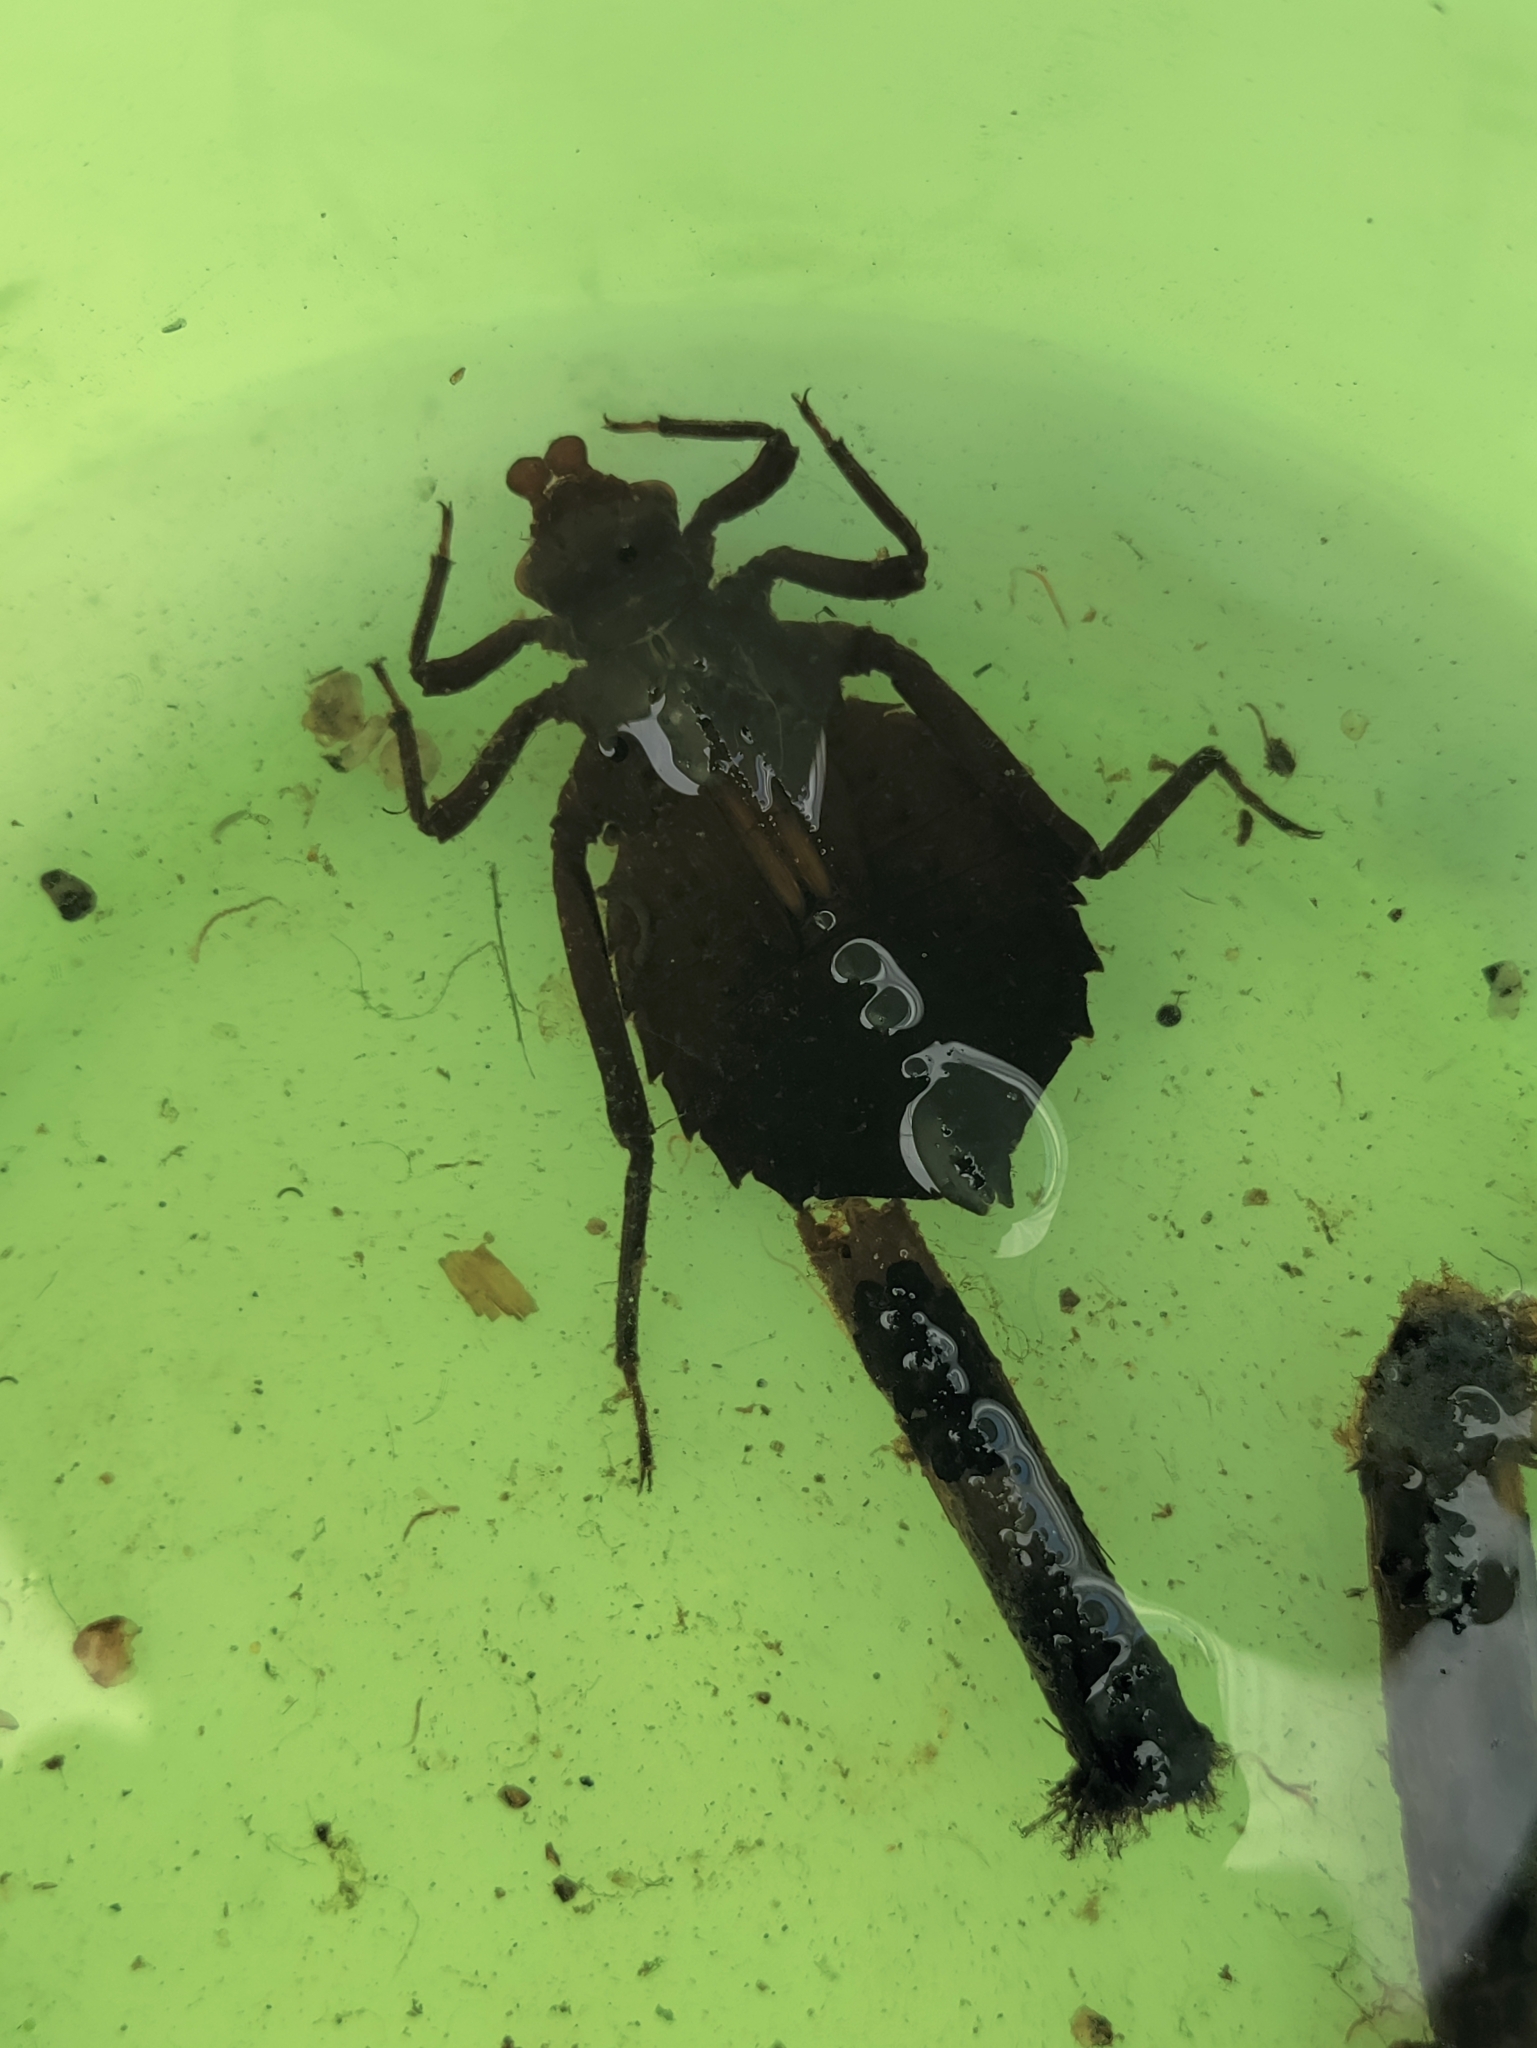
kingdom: Animalia
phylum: Arthropoda
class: Insecta
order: Odonata
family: Gomphidae
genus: Hagenius
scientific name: Hagenius brevistylus
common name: Dragonhunter
